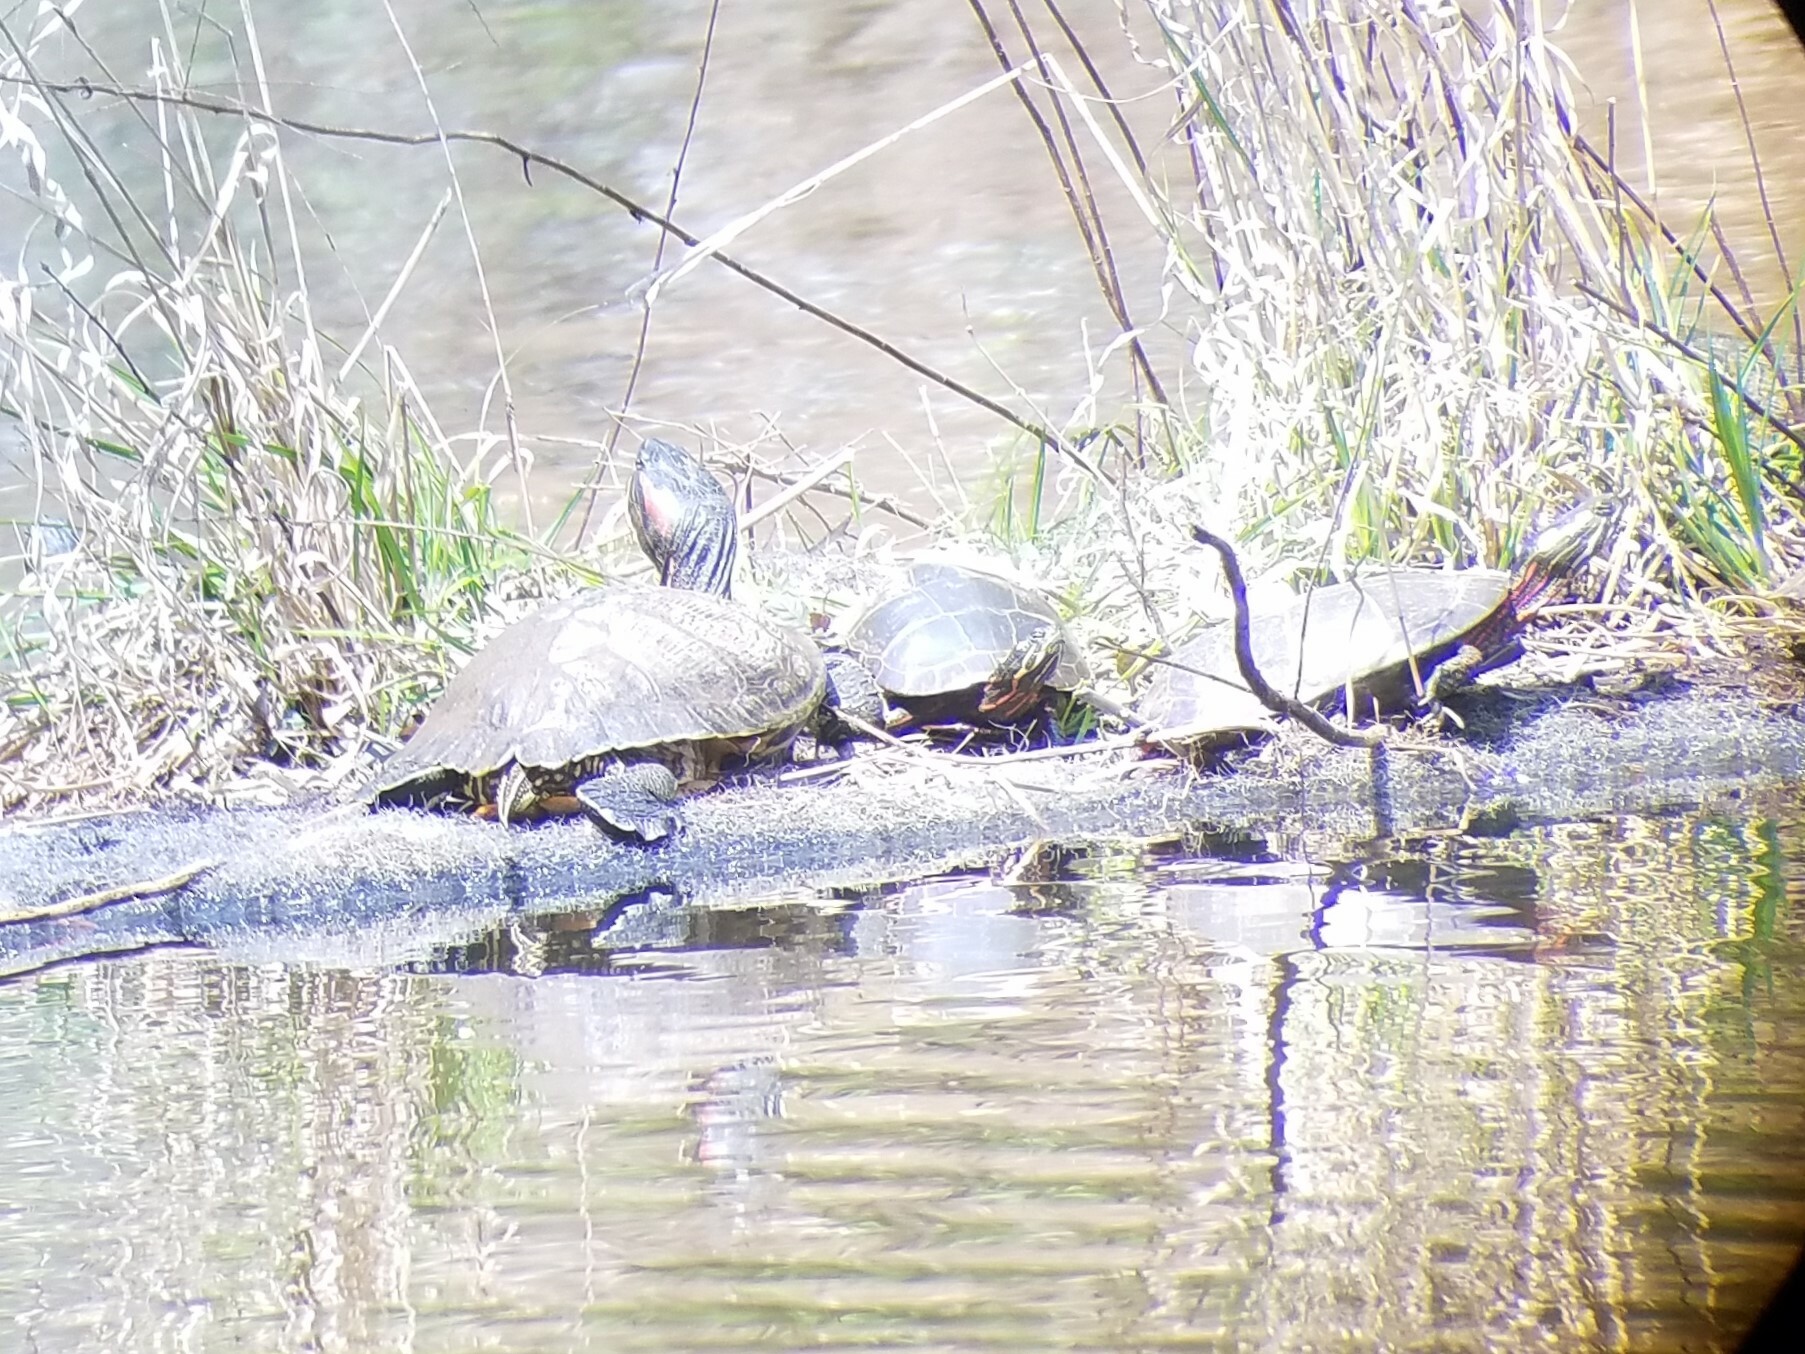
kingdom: Animalia
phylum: Chordata
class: Testudines
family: Emydidae
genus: Trachemys
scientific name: Trachemys scripta
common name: Slider
